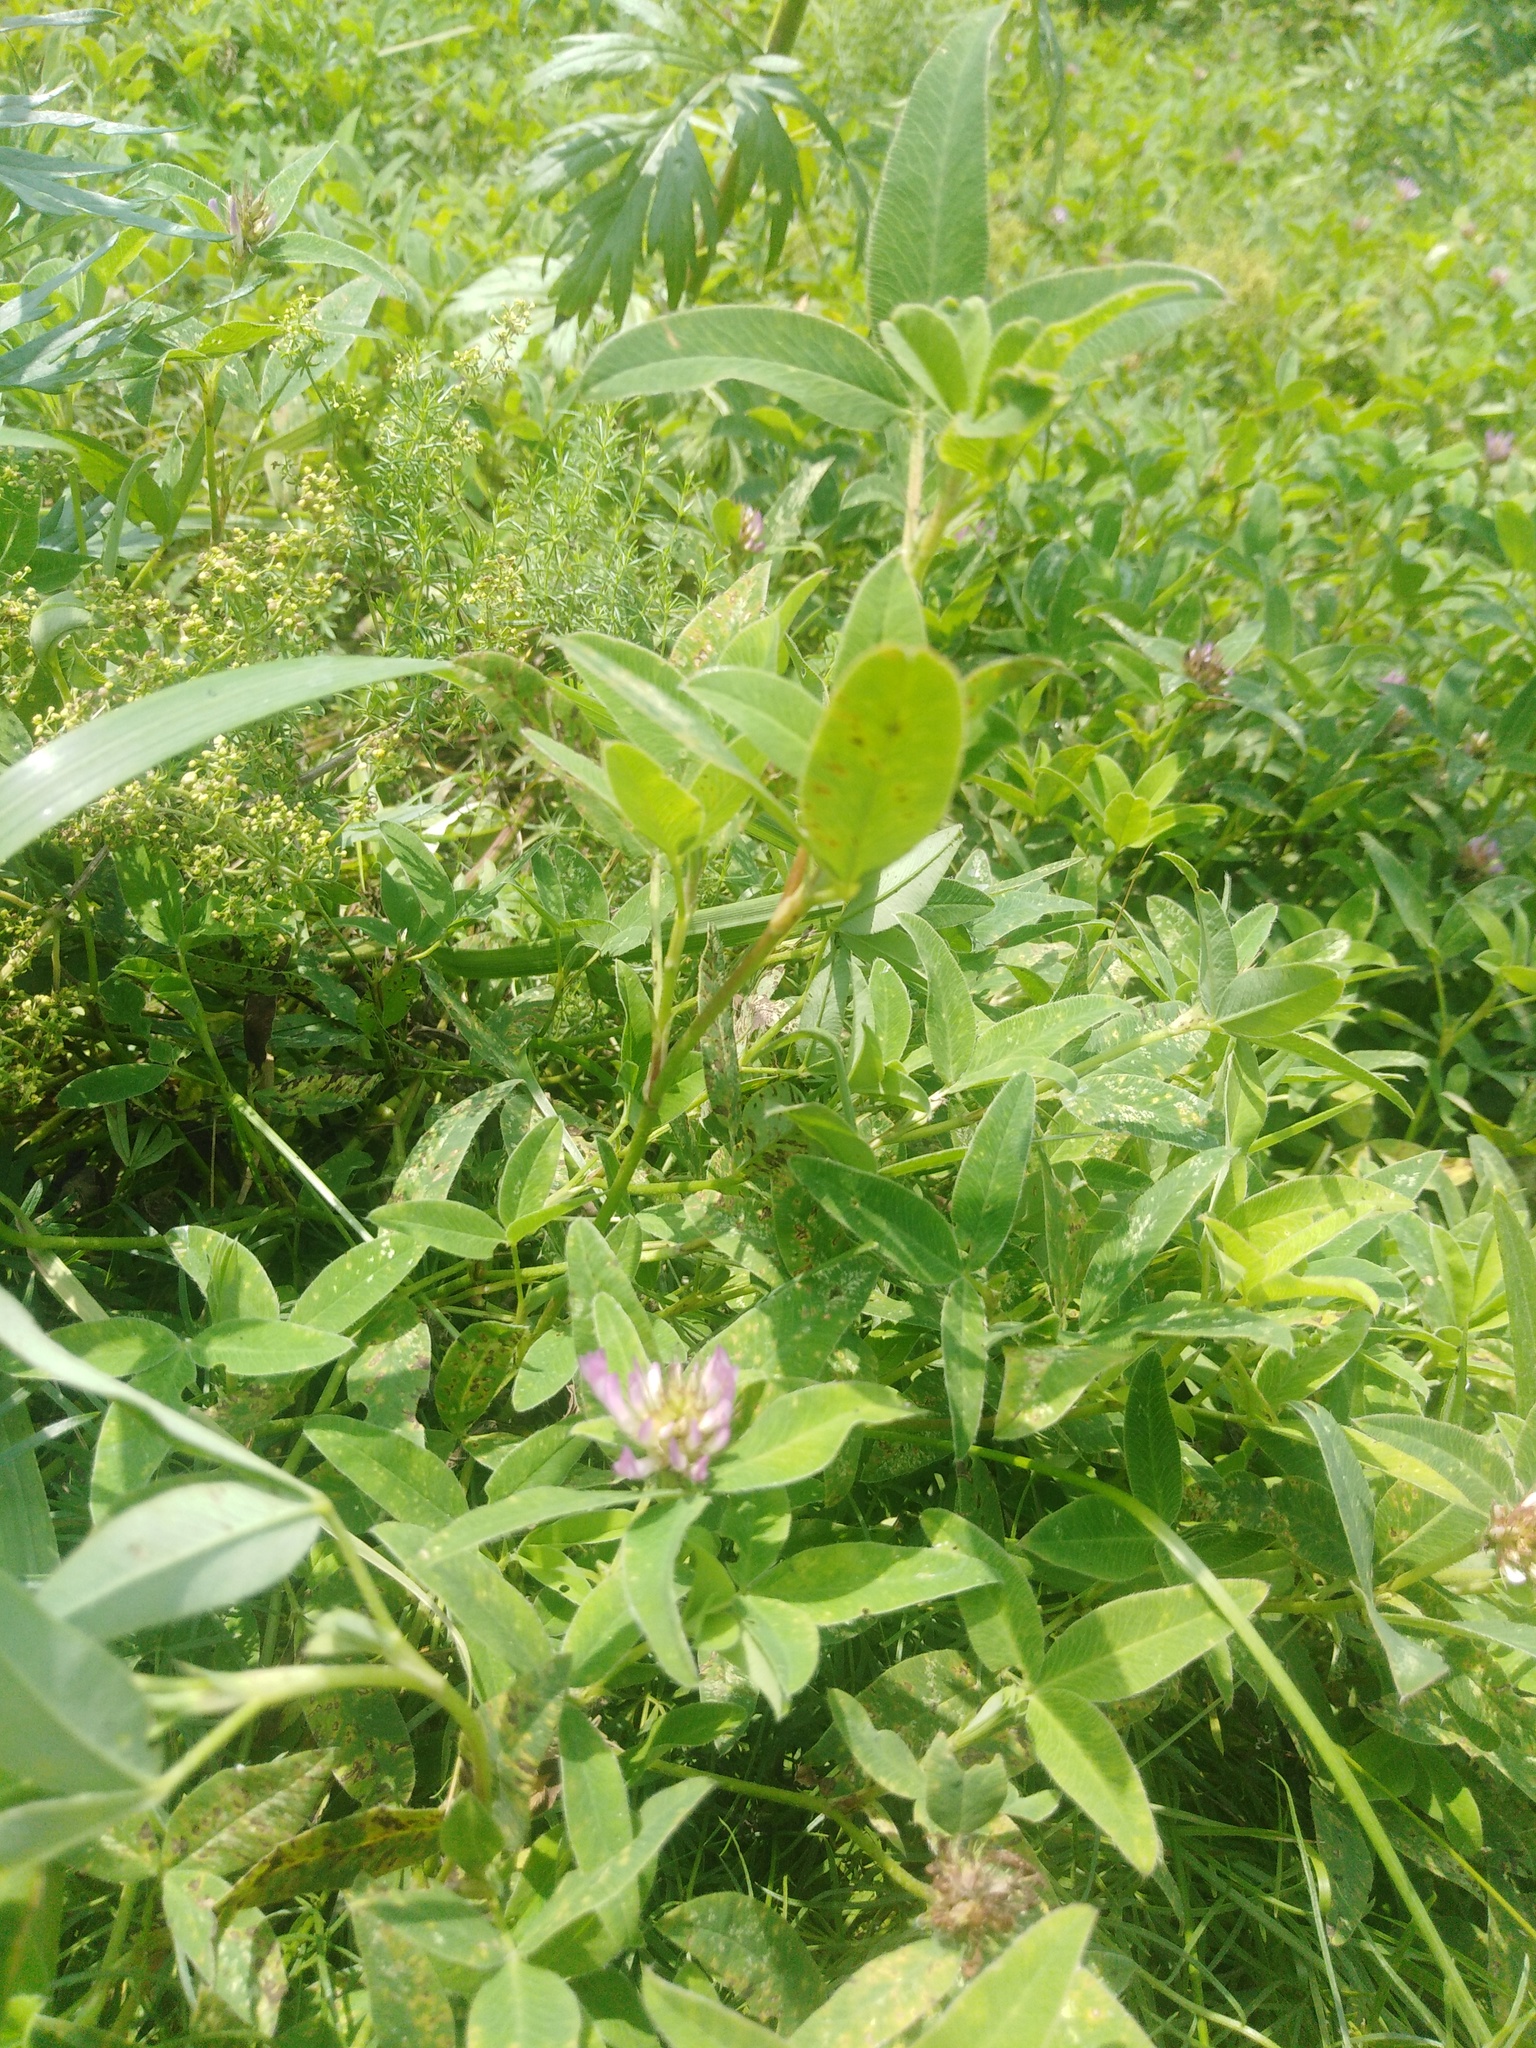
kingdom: Plantae
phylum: Tracheophyta
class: Magnoliopsida
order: Fabales
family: Fabaceae
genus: Trifolium
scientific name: Trifolium medium
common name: Zigzag clover
